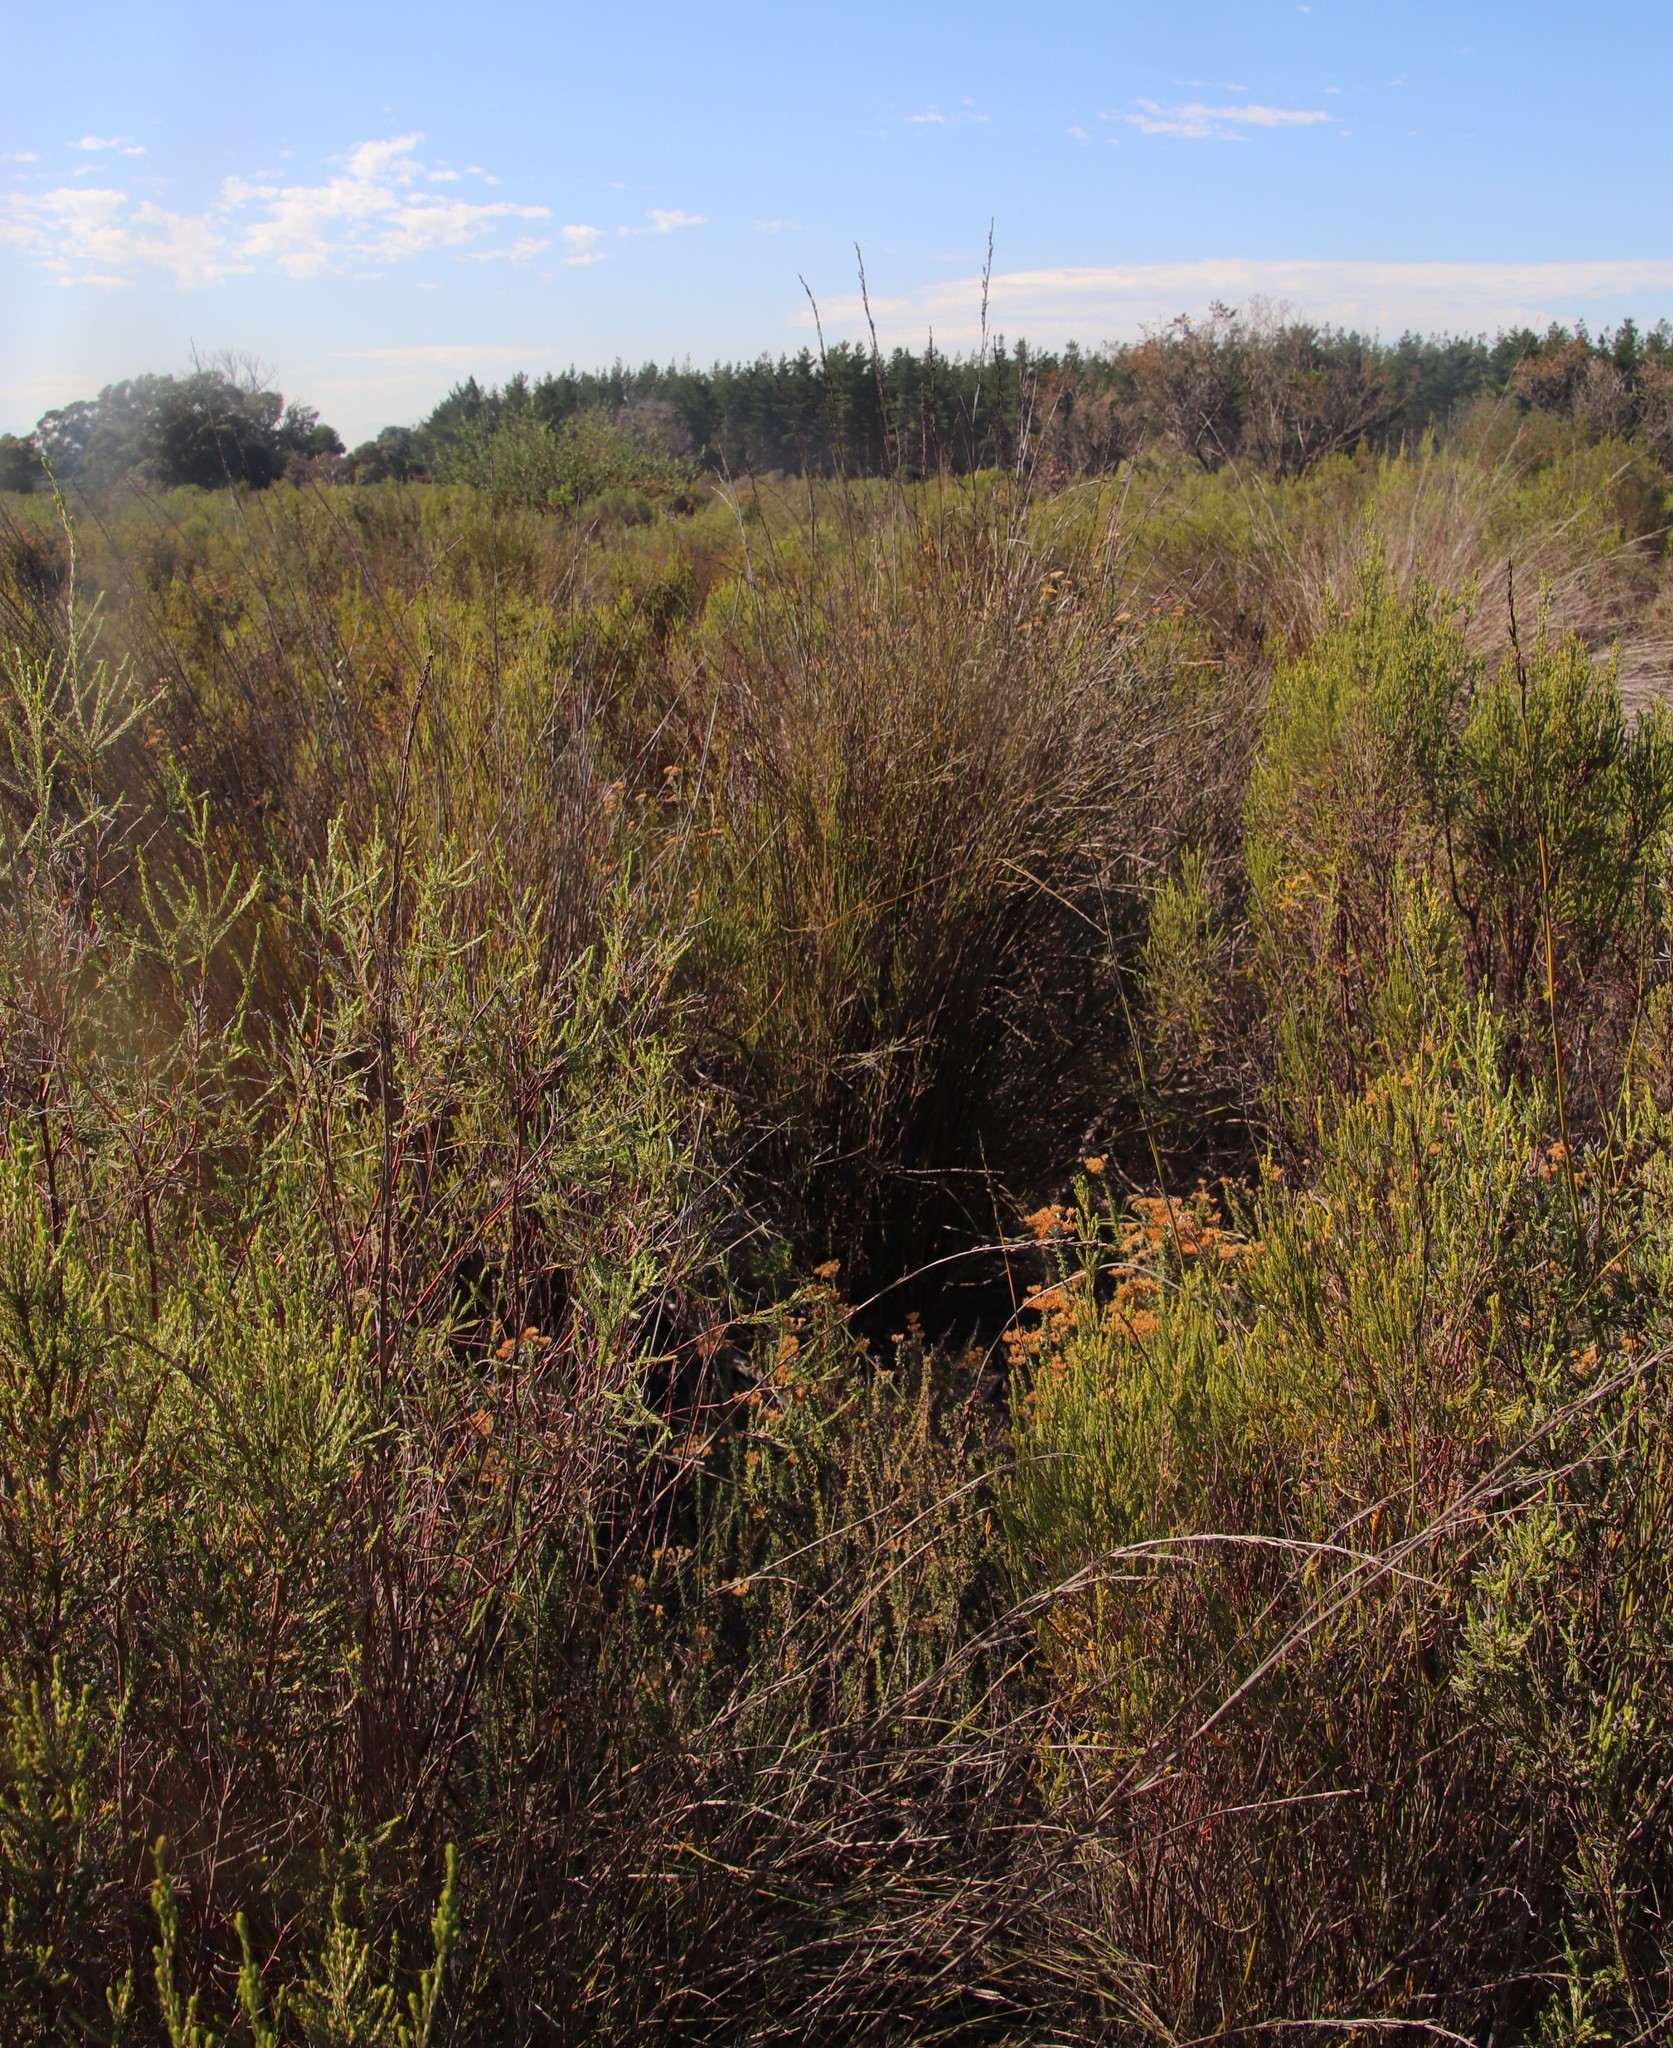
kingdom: Plantae
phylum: Tracheophyta
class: Liliopsida
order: Poales
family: Restionaceae
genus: Restio
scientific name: Restio tetragonus
